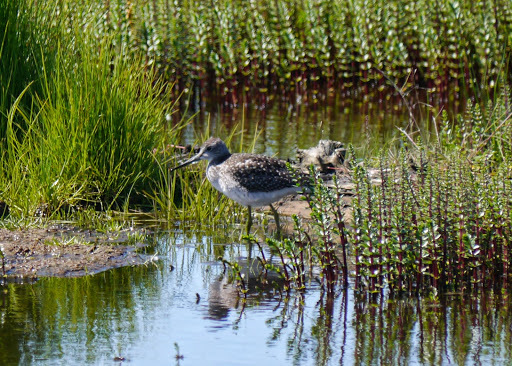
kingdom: Animalia
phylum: Chordata
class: Aves
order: Charadriiformes
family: Scolopacidae
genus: Tringa
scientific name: Tringa melanoleuca
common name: Greater yellowlegs
